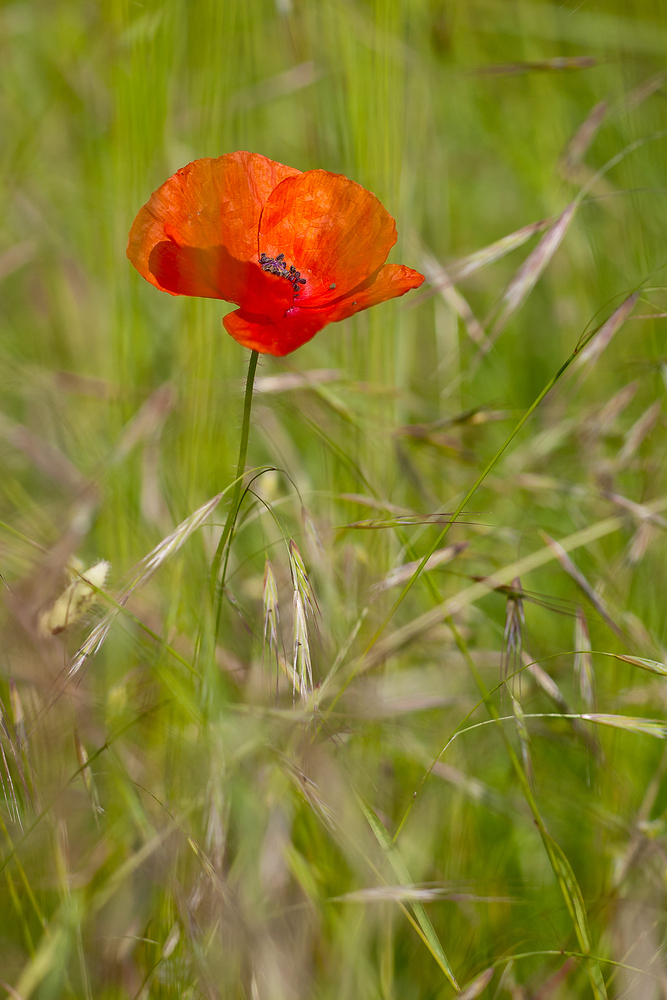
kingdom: Plantae
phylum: Tracheophyta
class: Magnoliopsida
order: Ranunculales
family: Papaveraceae
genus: Papaver
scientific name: Papaver rhoeas
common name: Corn poppy
